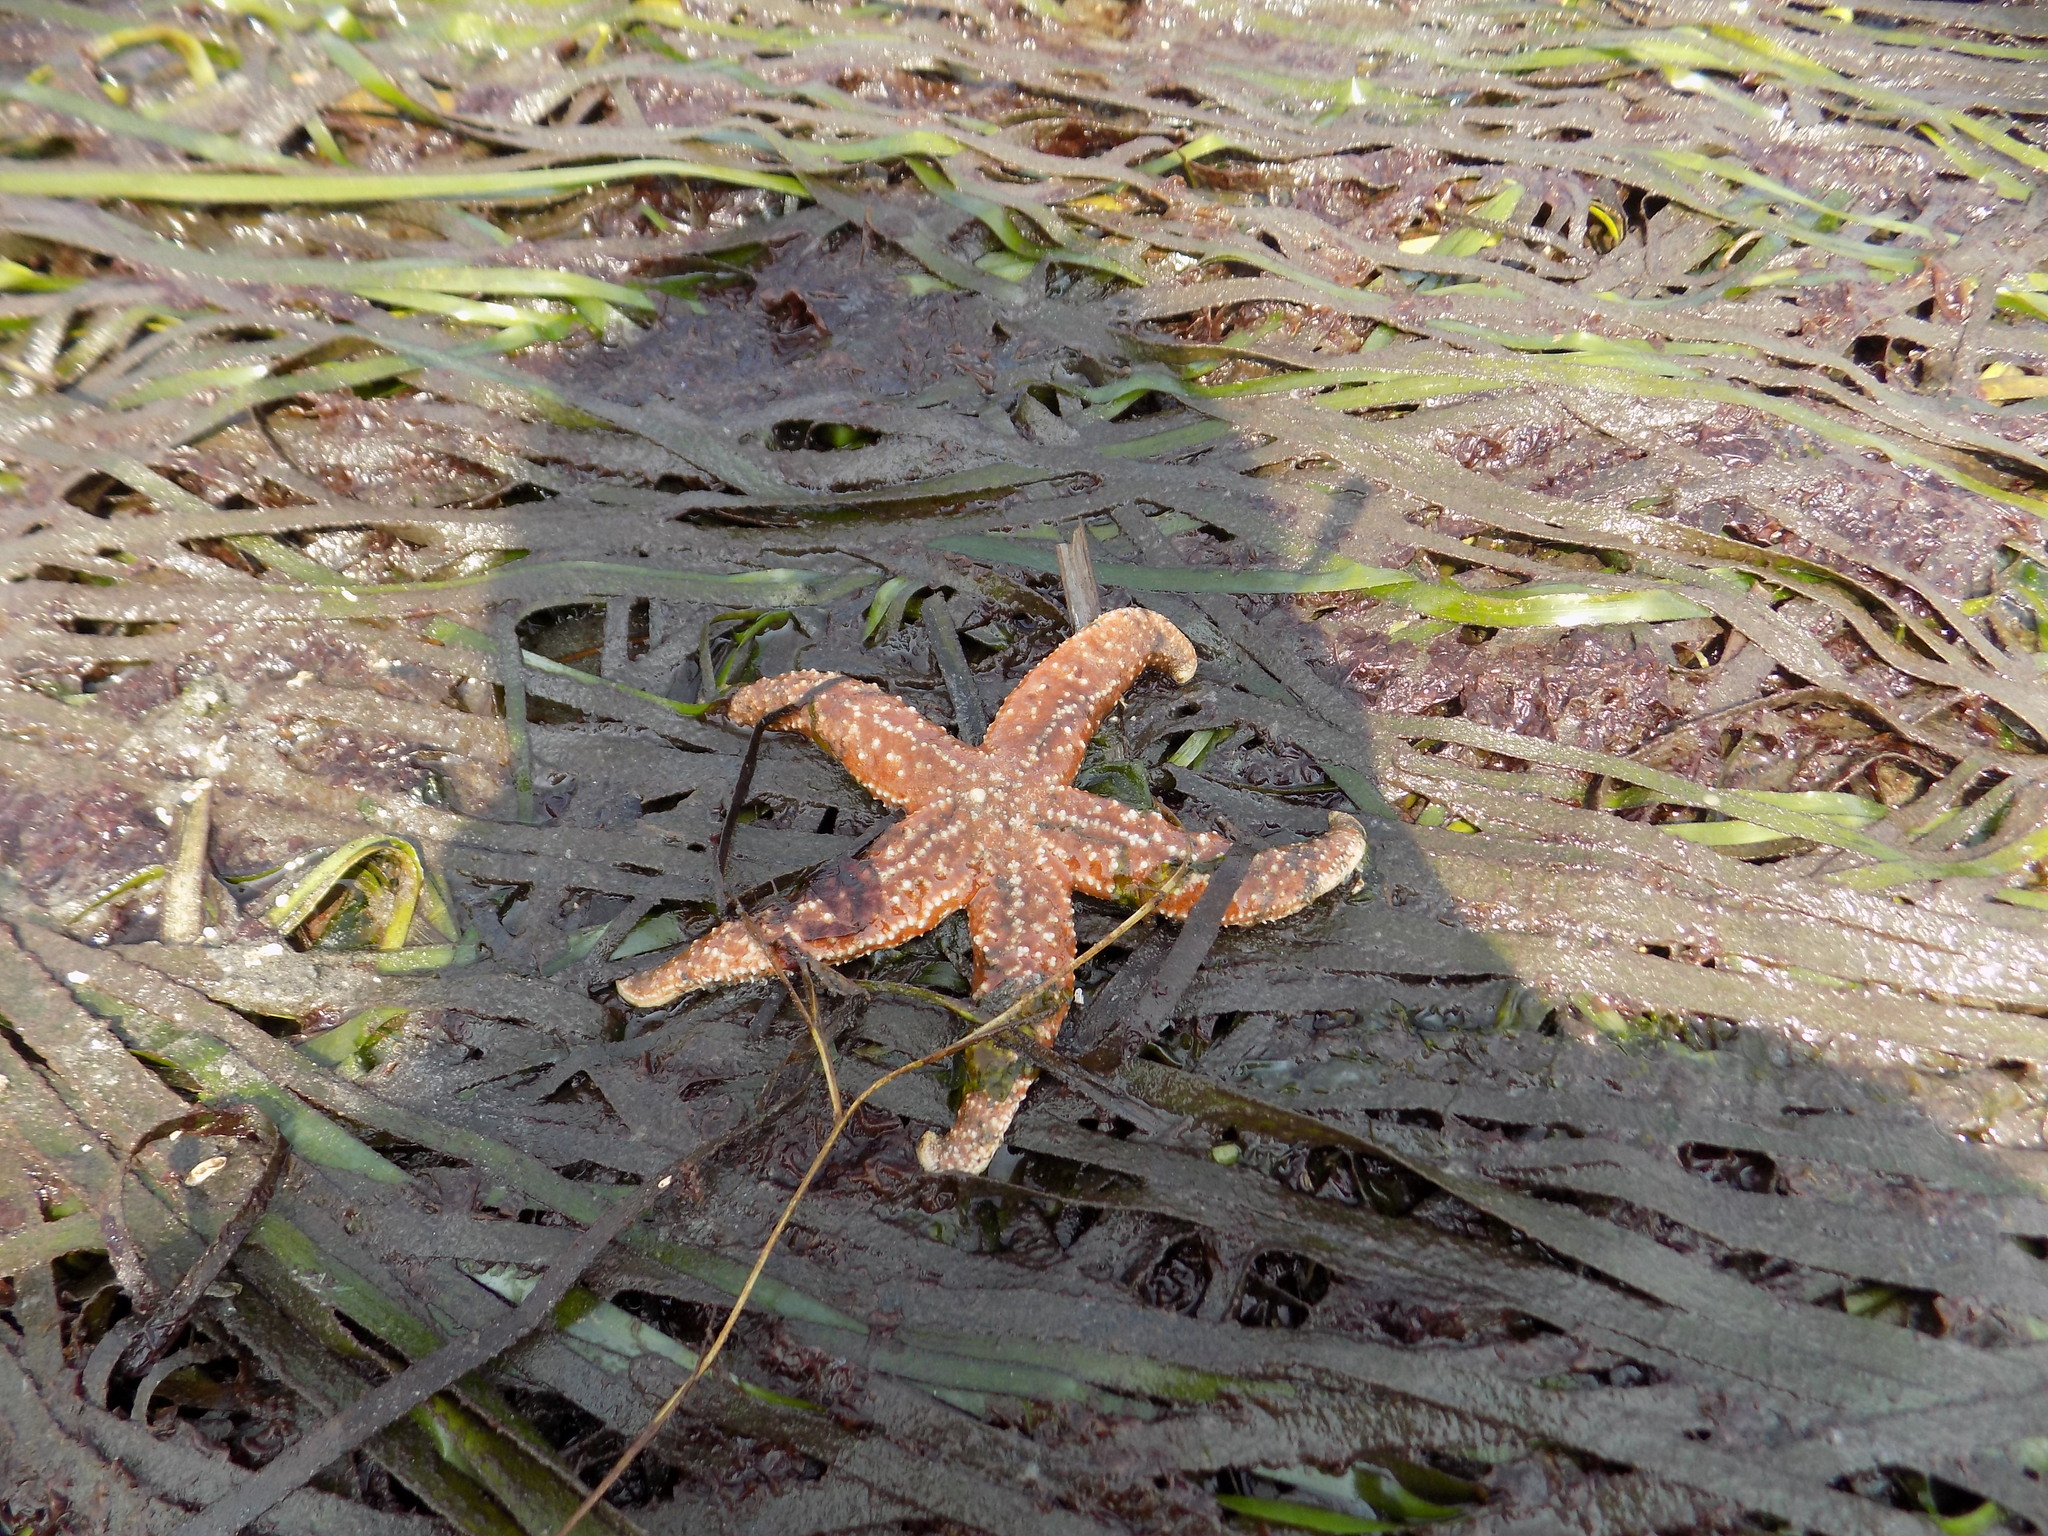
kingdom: Animalia
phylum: Echinodermata
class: Asteroidea
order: Forcipulatida
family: Asteriidae
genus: Evasterias
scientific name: Evasterias troschelii
